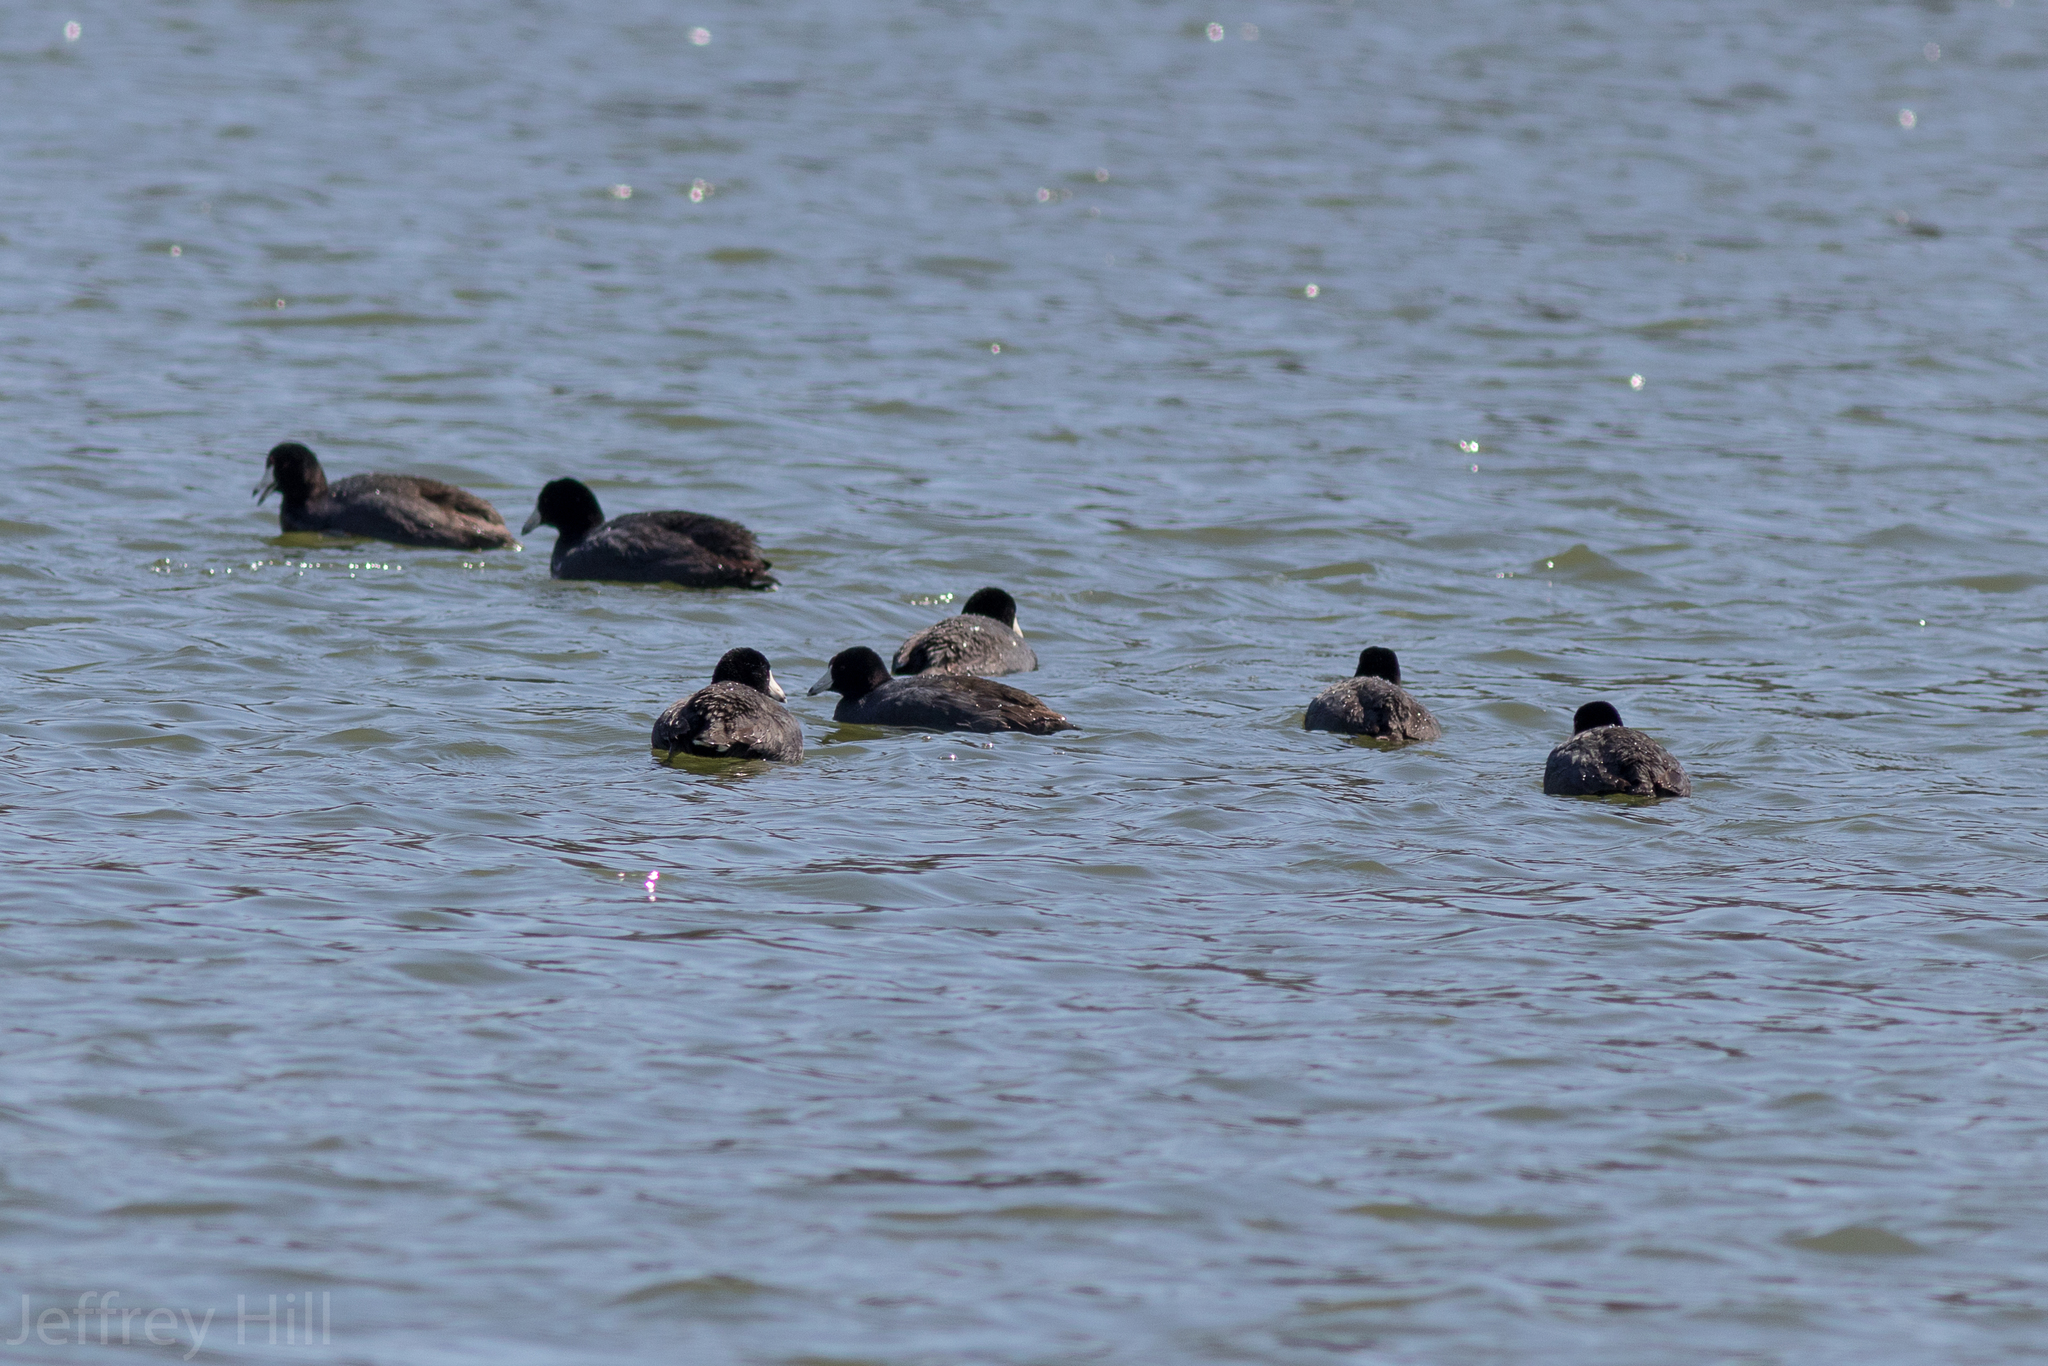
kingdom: Animalia
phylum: Chordata
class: Aves
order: Gruiformes
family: Rallidae
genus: Fulica
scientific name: Fulica americana
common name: American coot
